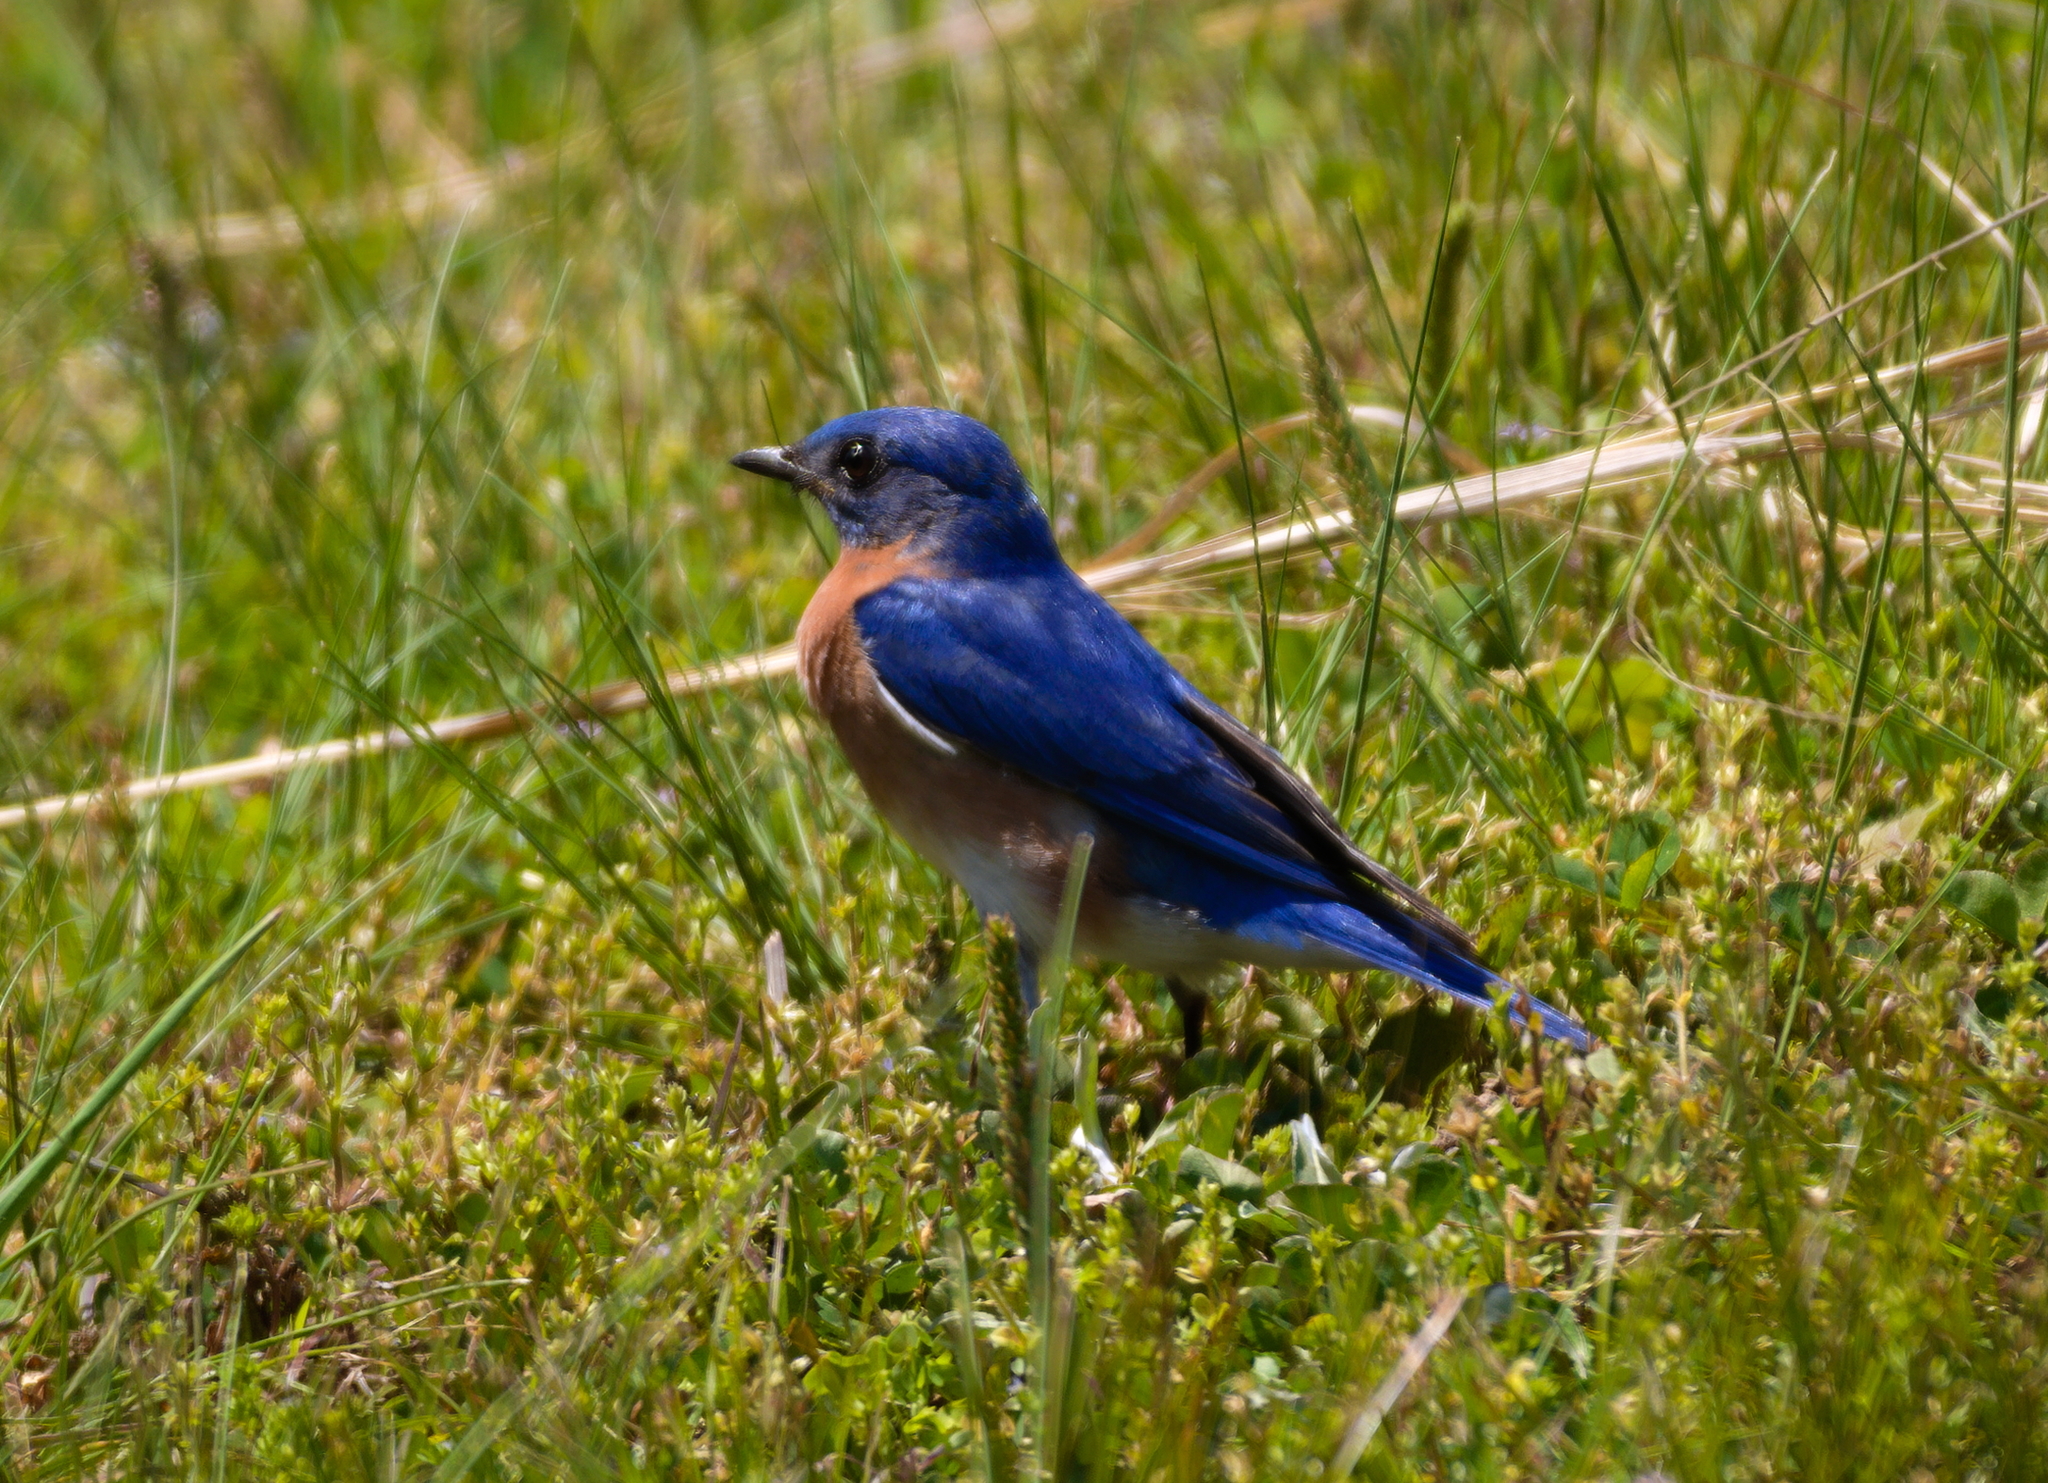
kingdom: Animalia
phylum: Chordata
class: Aves
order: Passeriformes
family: Turdidae
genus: Sialia
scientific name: Sialia sialis
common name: Eastern bluebird
